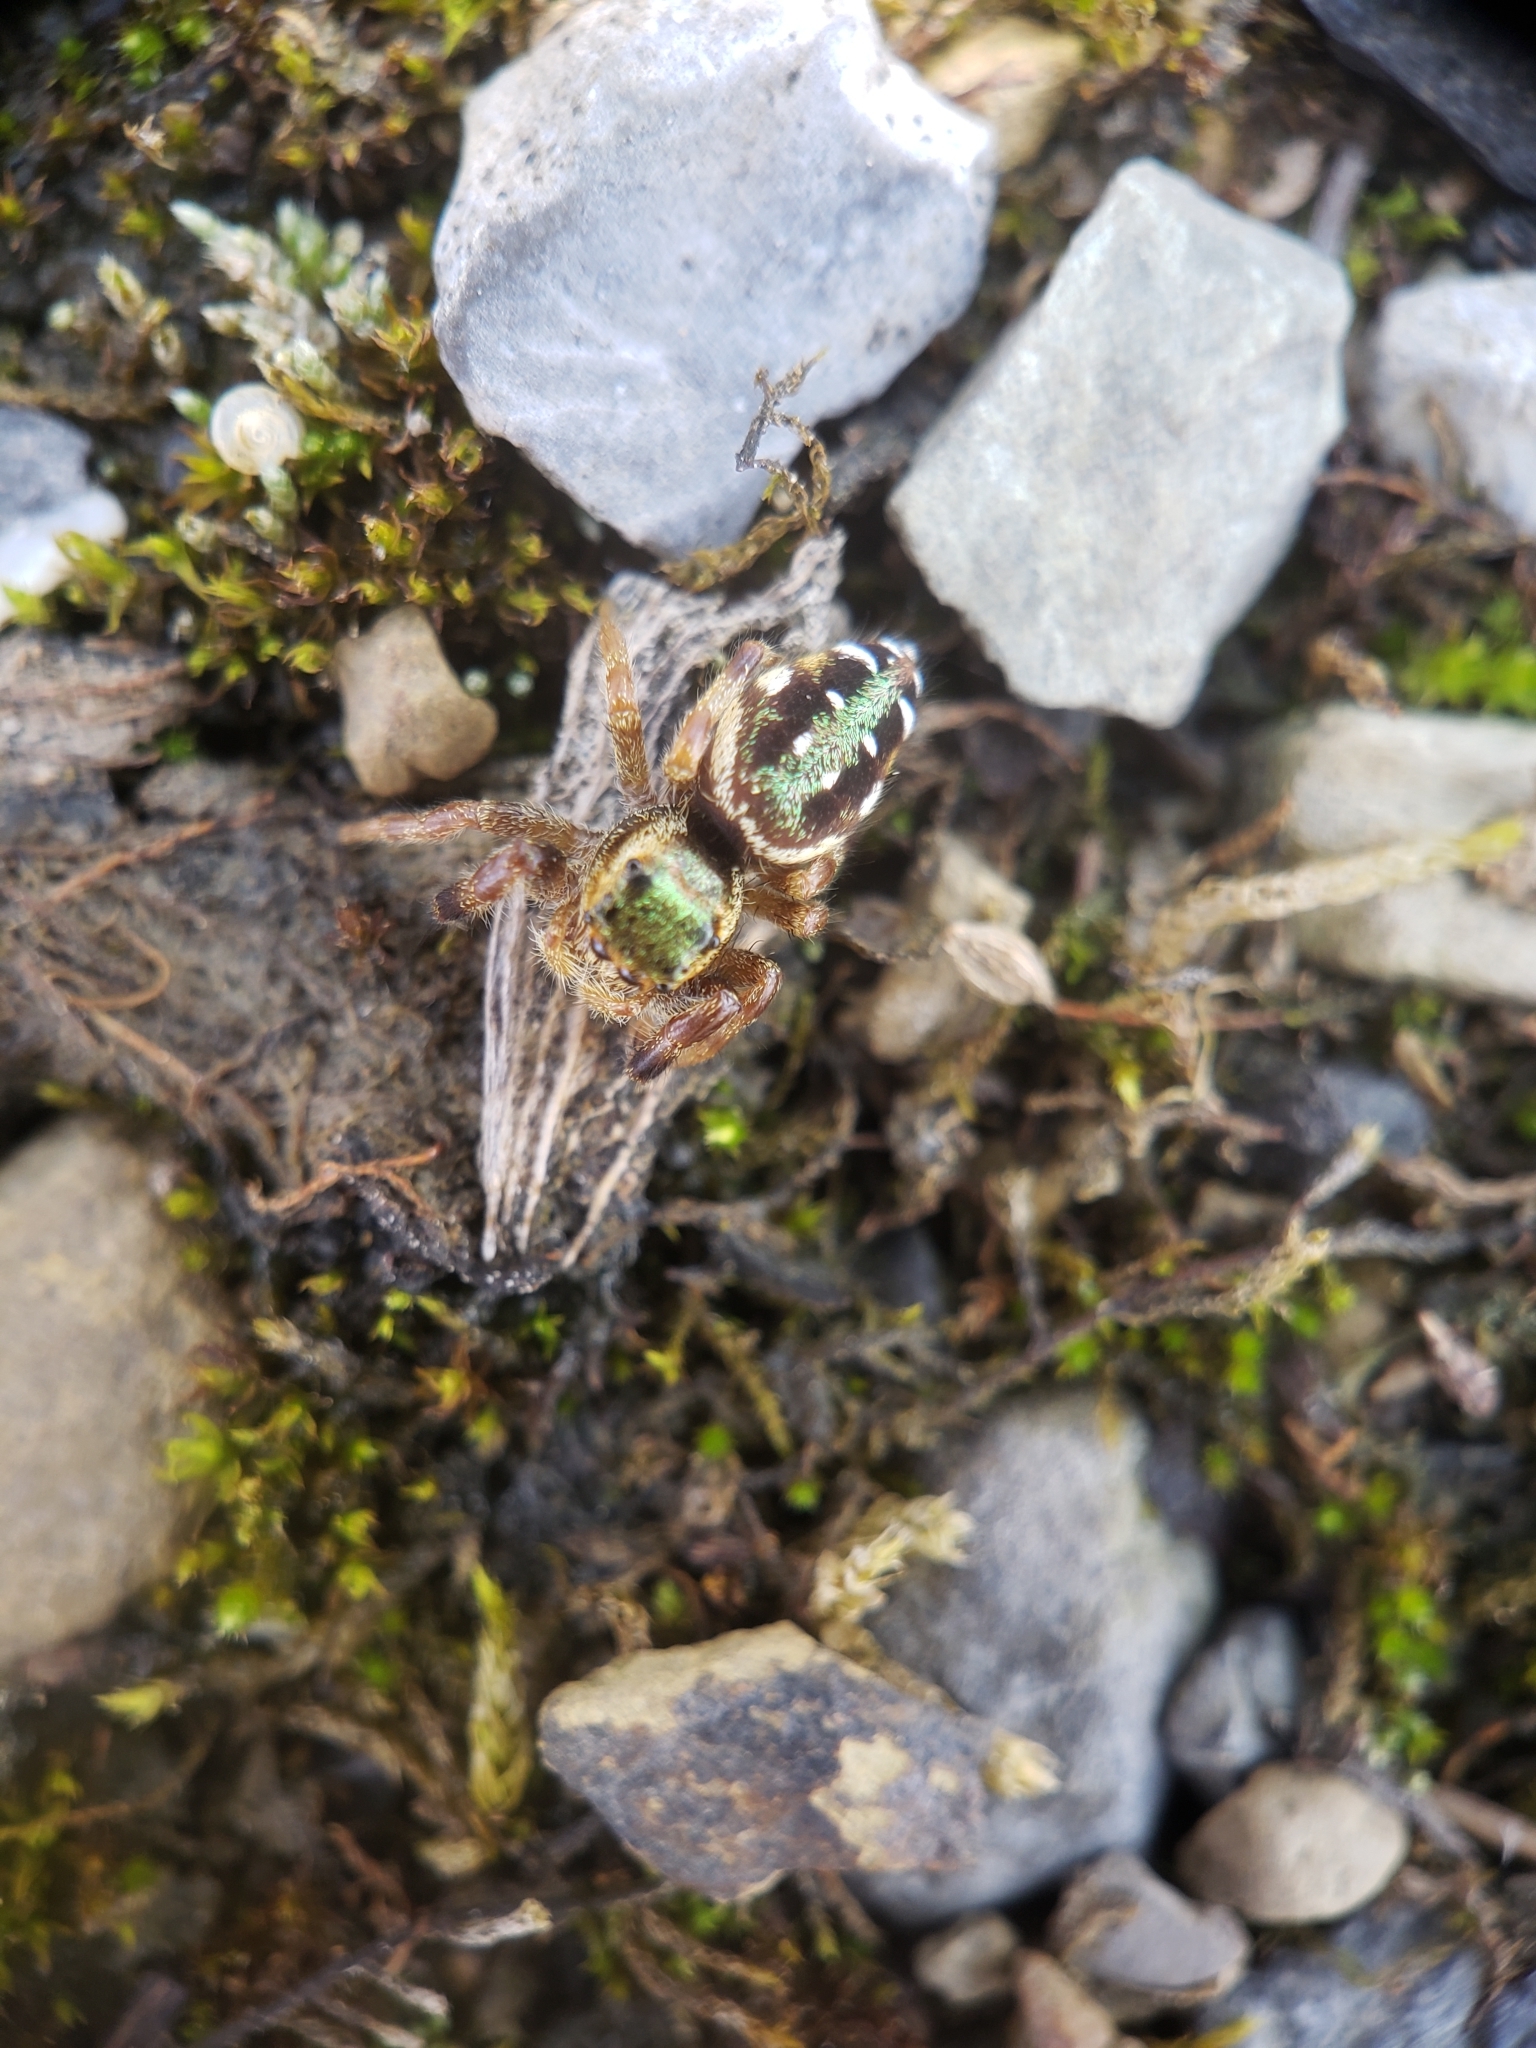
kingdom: Animalia
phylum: Arthropoda
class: Arachnida
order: Araneae
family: Salticidae
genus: Paraphidippus
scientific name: Paraphidippus aurantius
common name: Jumping spiders
